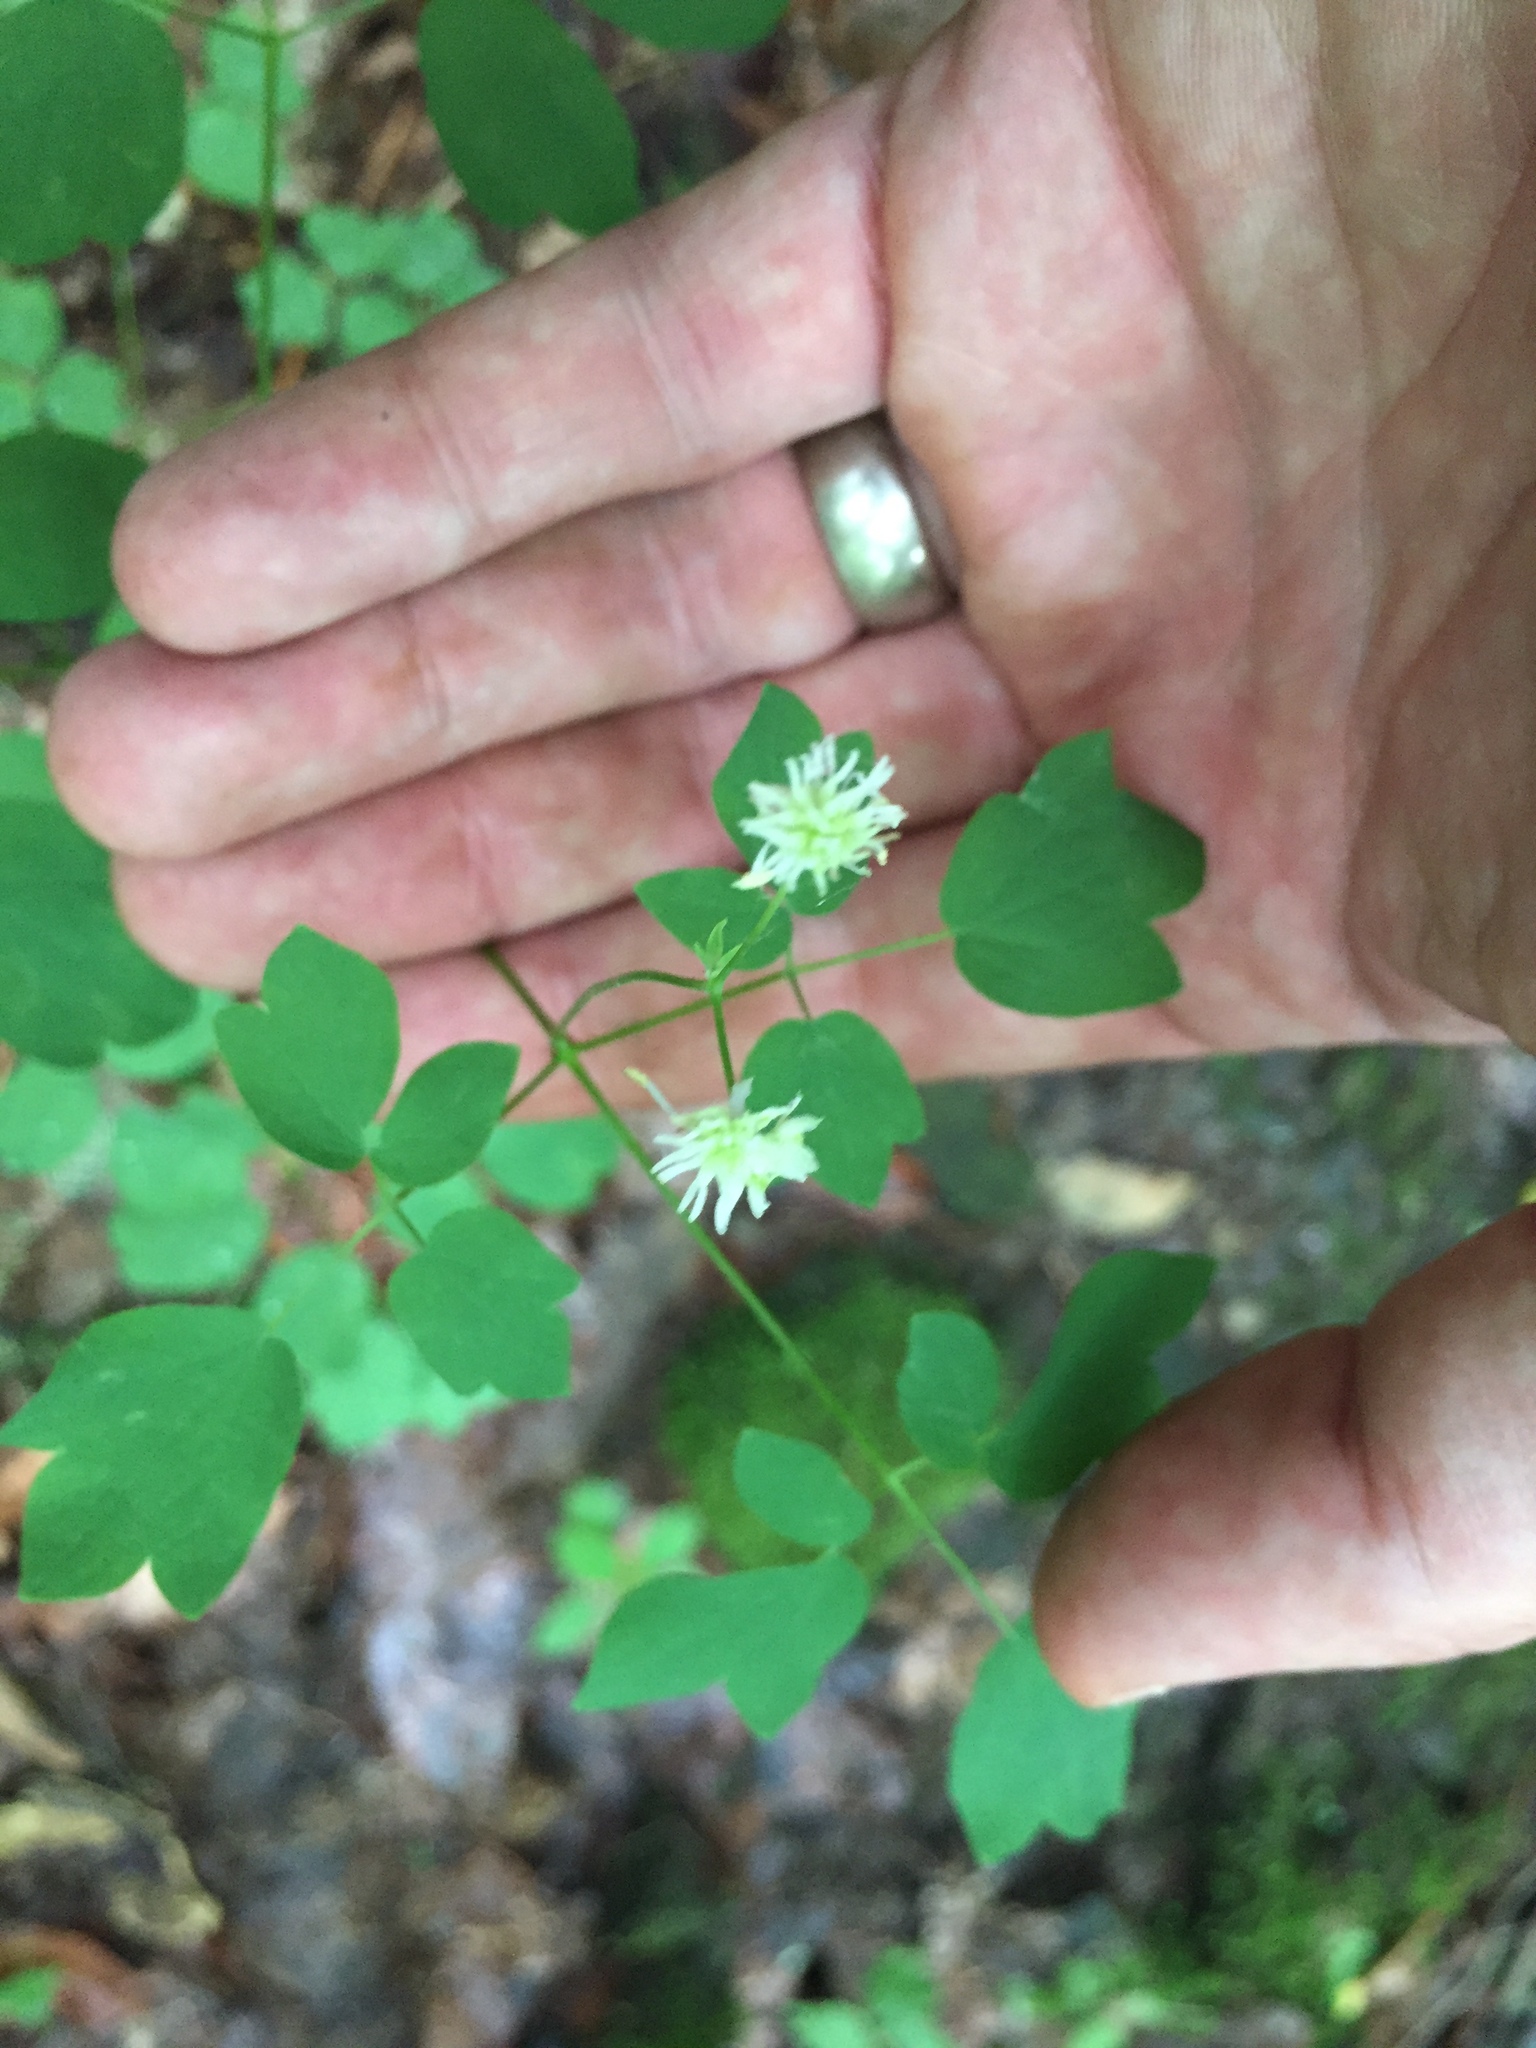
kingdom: Plantae
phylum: Tracheophyta
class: Magnoliopsida
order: Ranunculales
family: Ranunculaceae
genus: Thalictrum
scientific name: Thalictrum pubescens
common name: King-of-the-meadow
